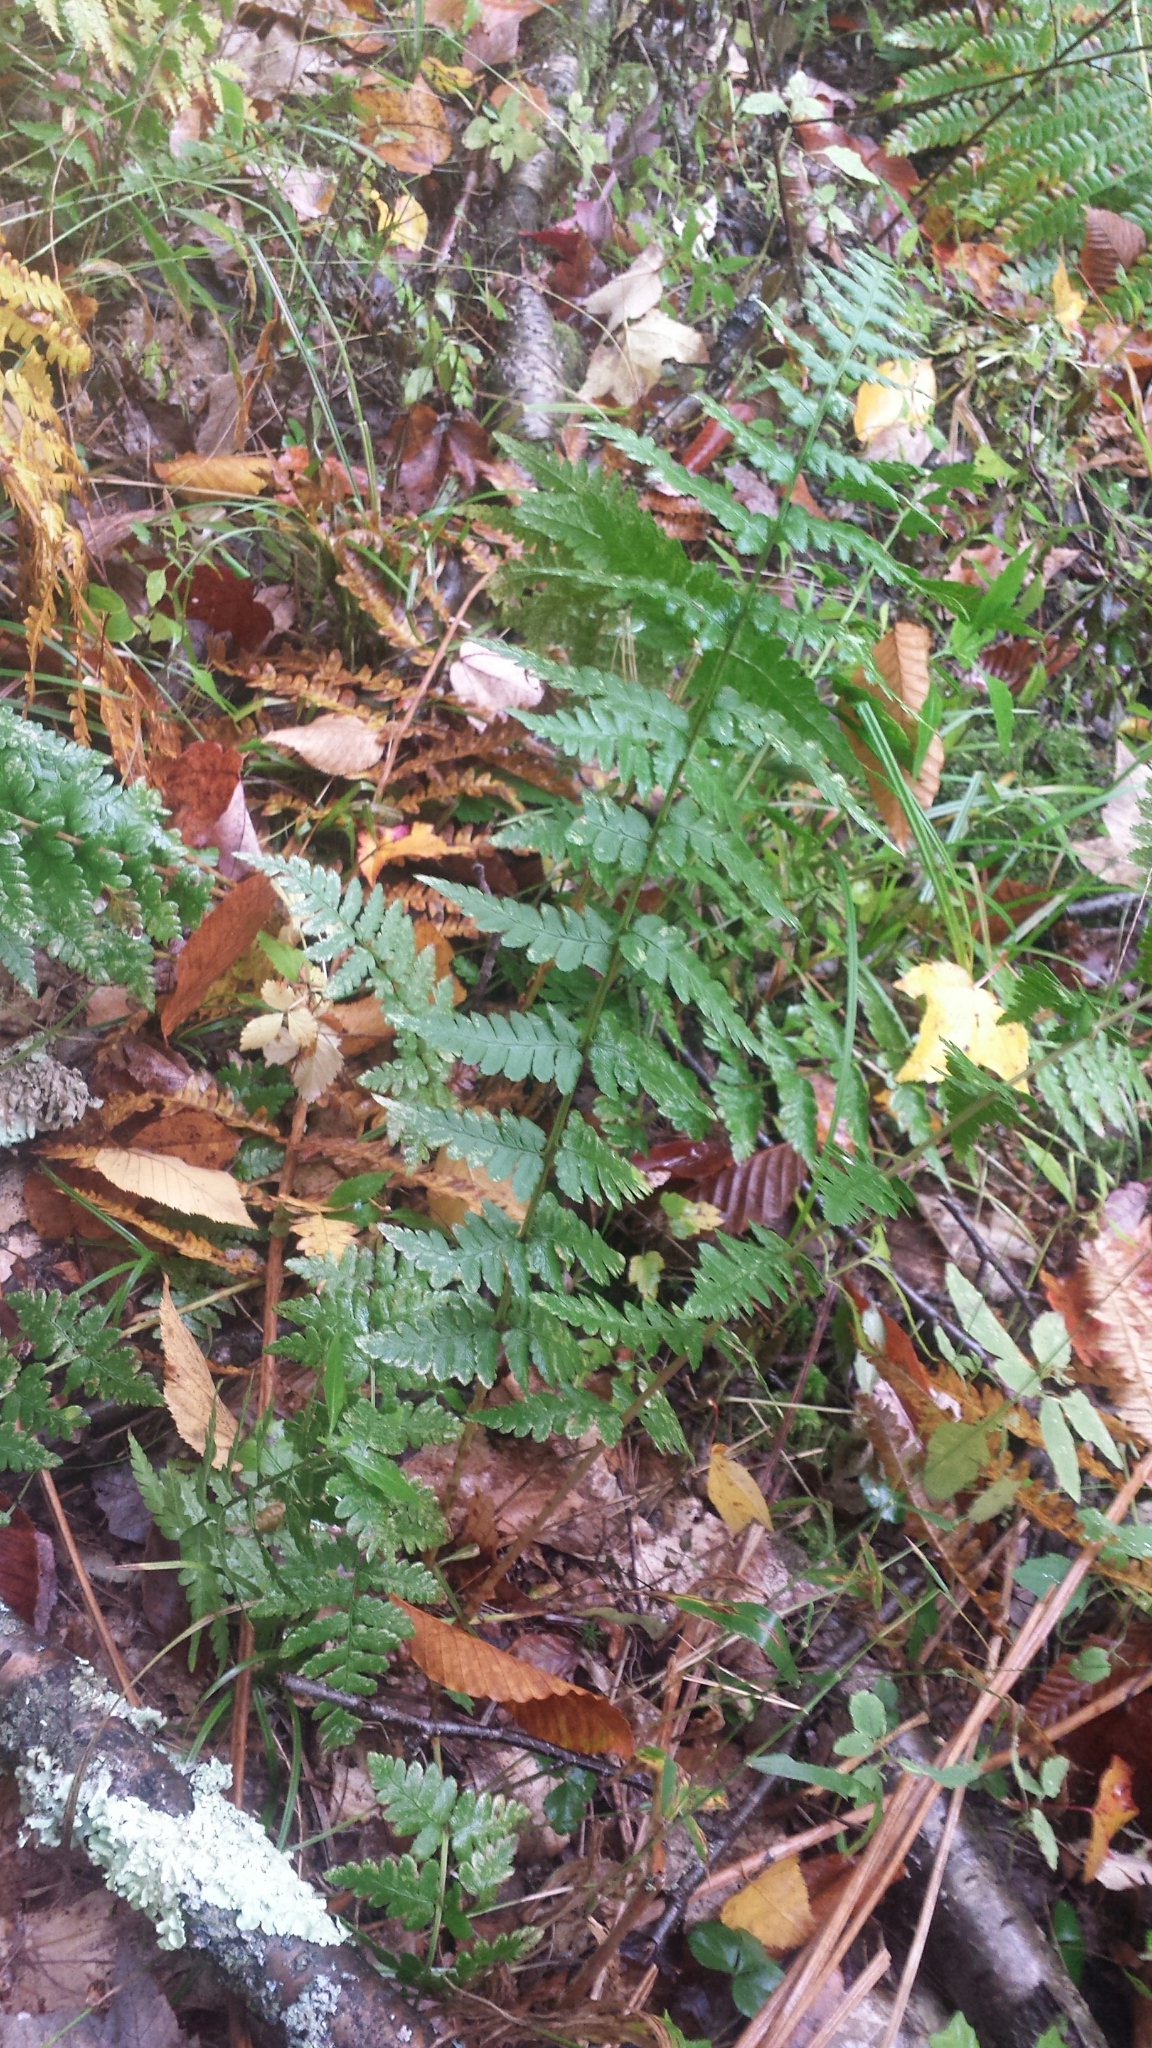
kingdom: Plantae
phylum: Tracheophyta
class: Polypodiopsida
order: Polypodiales
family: Dryopteridaceae
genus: Dryopteris
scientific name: Dryopteris cristata
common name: Crested wood fern
